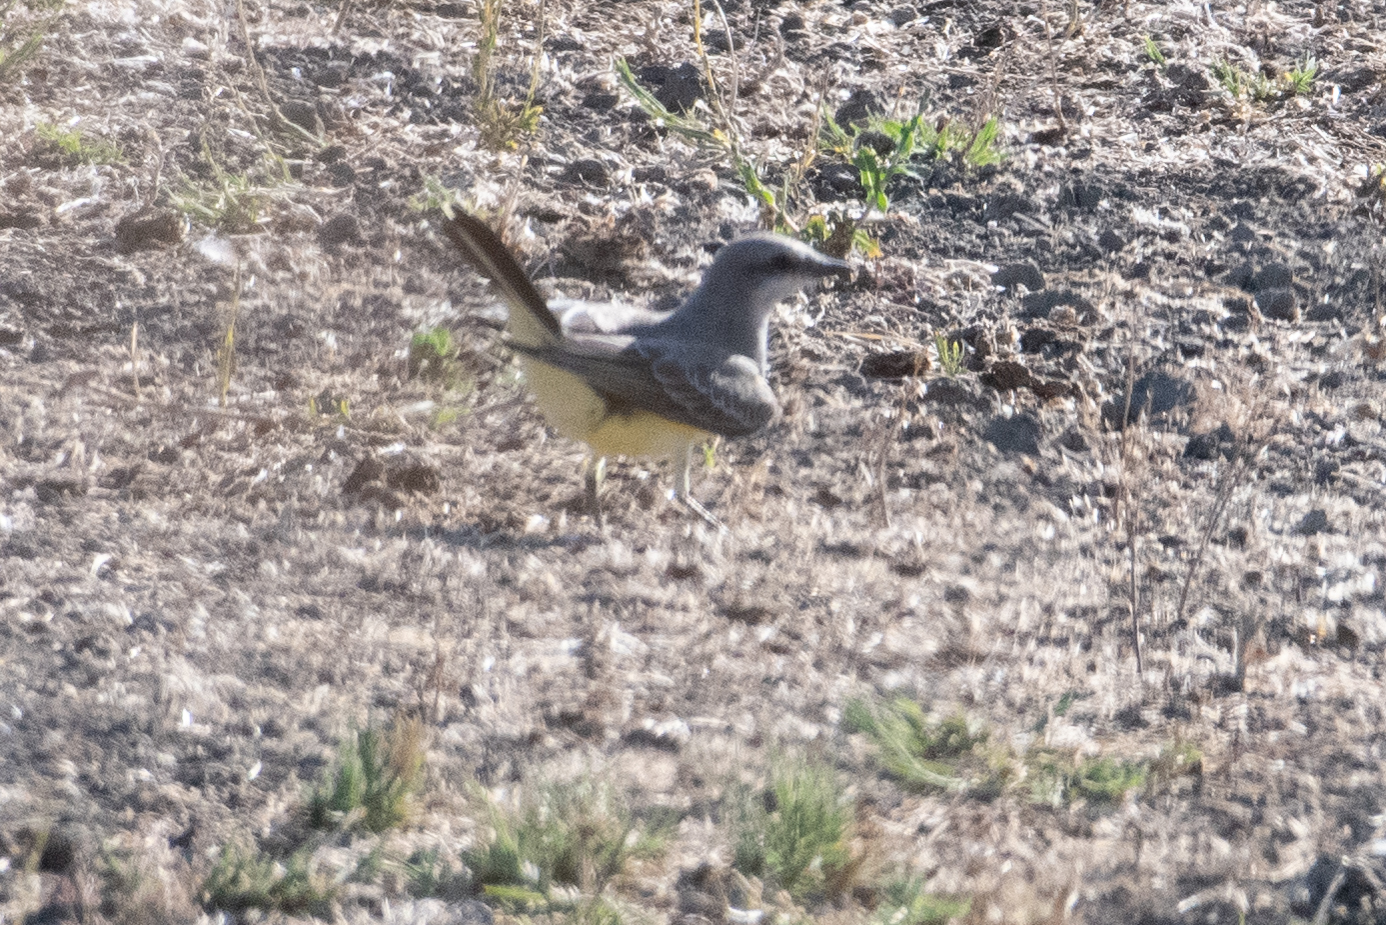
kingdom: Animalia
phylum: Chordata
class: Aves
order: Passeriformes
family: Tyrannidae
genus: Tyrannus
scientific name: Tyrannus verticalis
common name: Western kingbird
